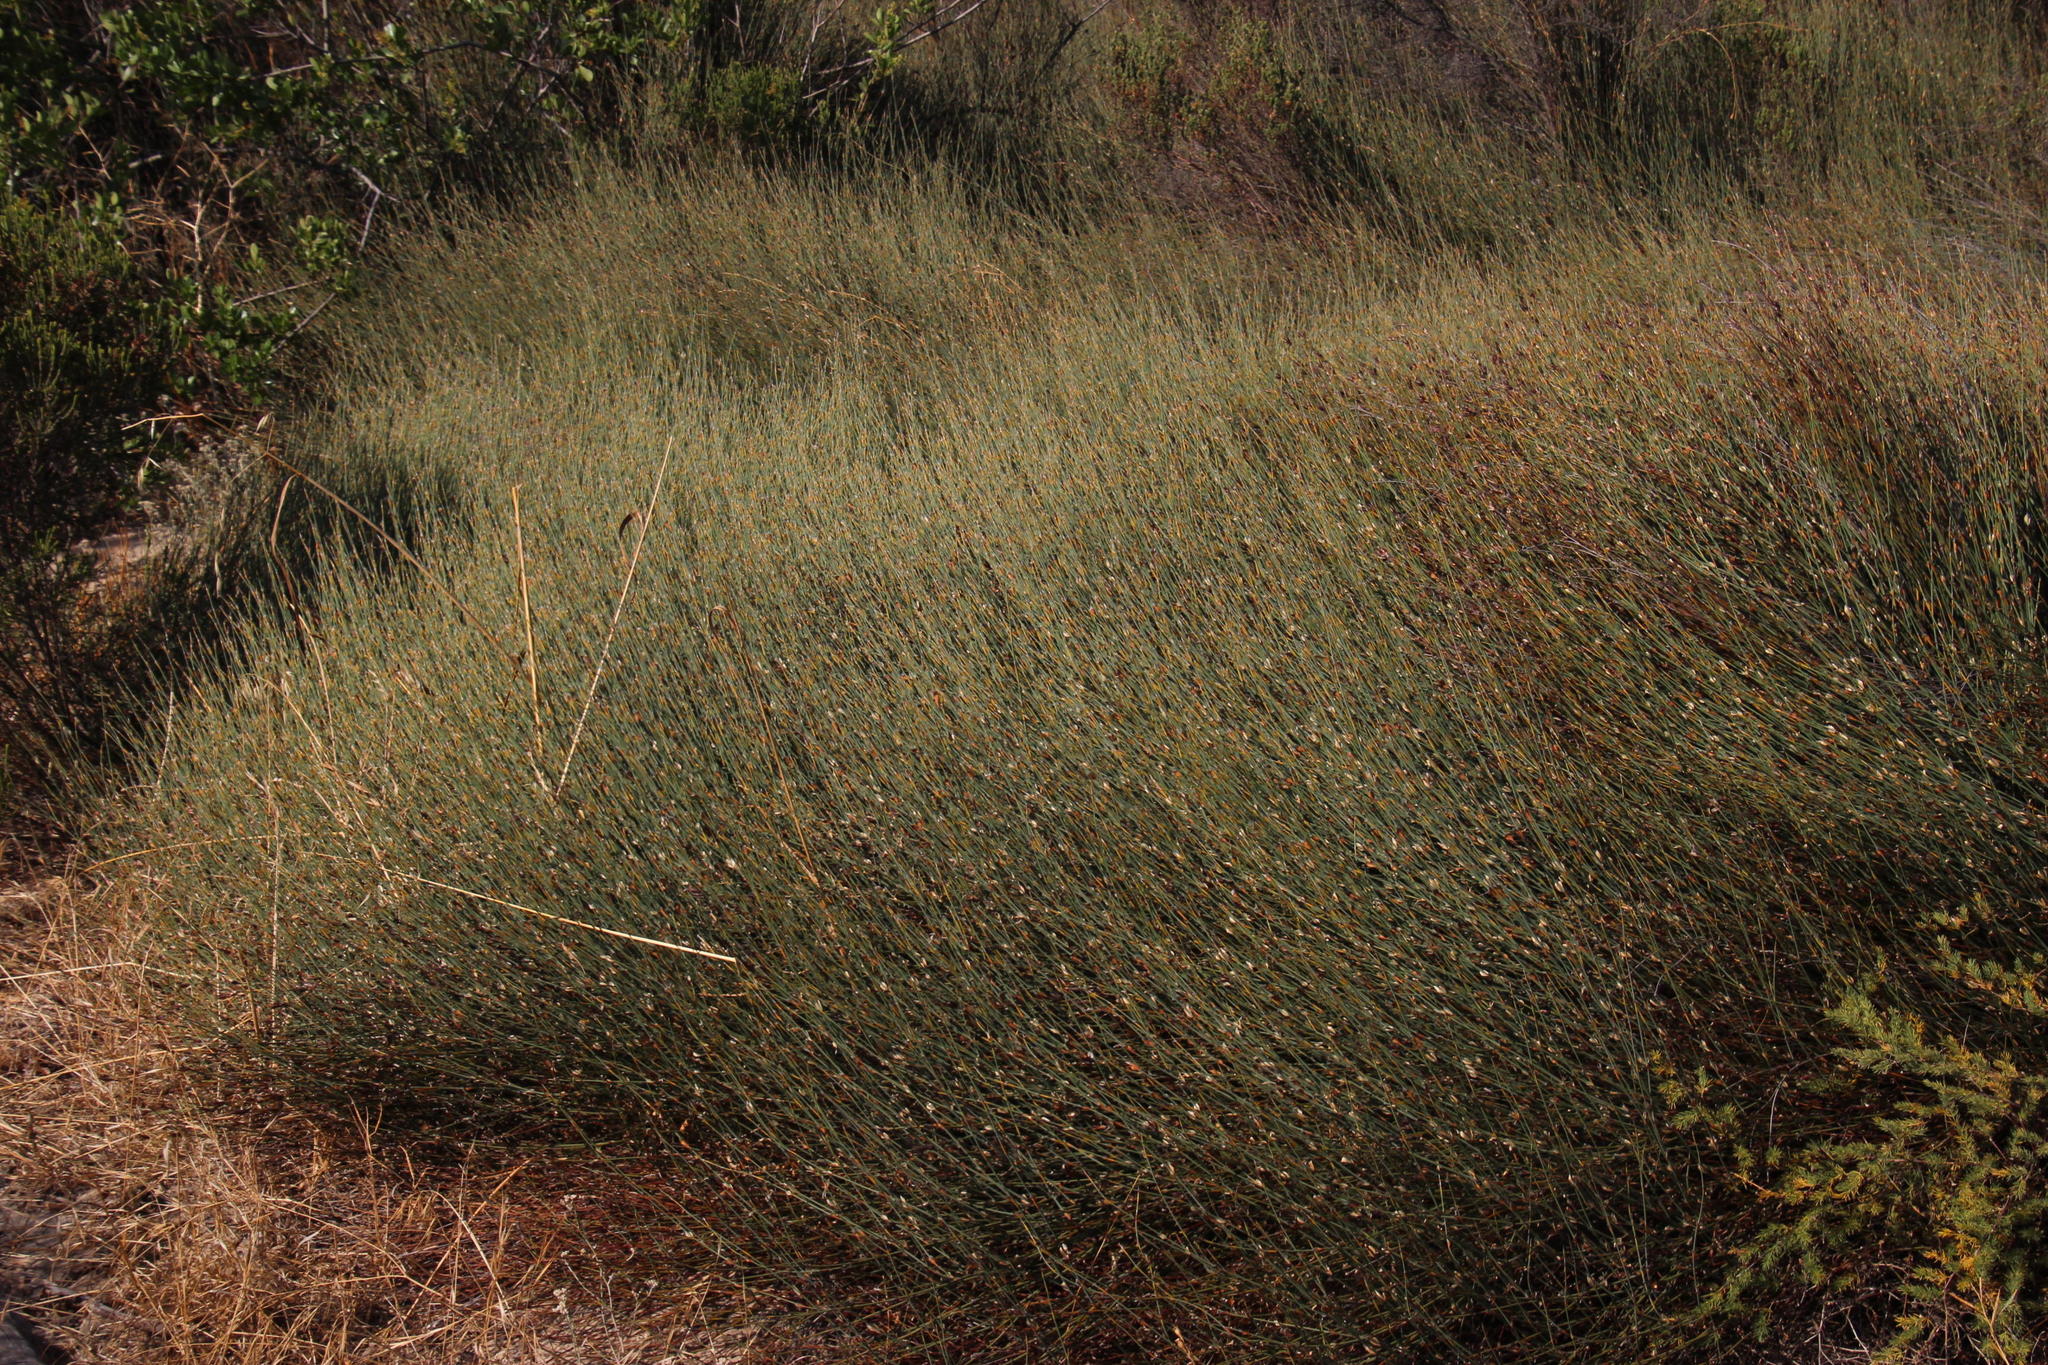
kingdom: Plantae
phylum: Tracheophyta
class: Liliopsida
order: Poales
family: Restionaceae
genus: Willdenowia
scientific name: Willdenowia incurvata
